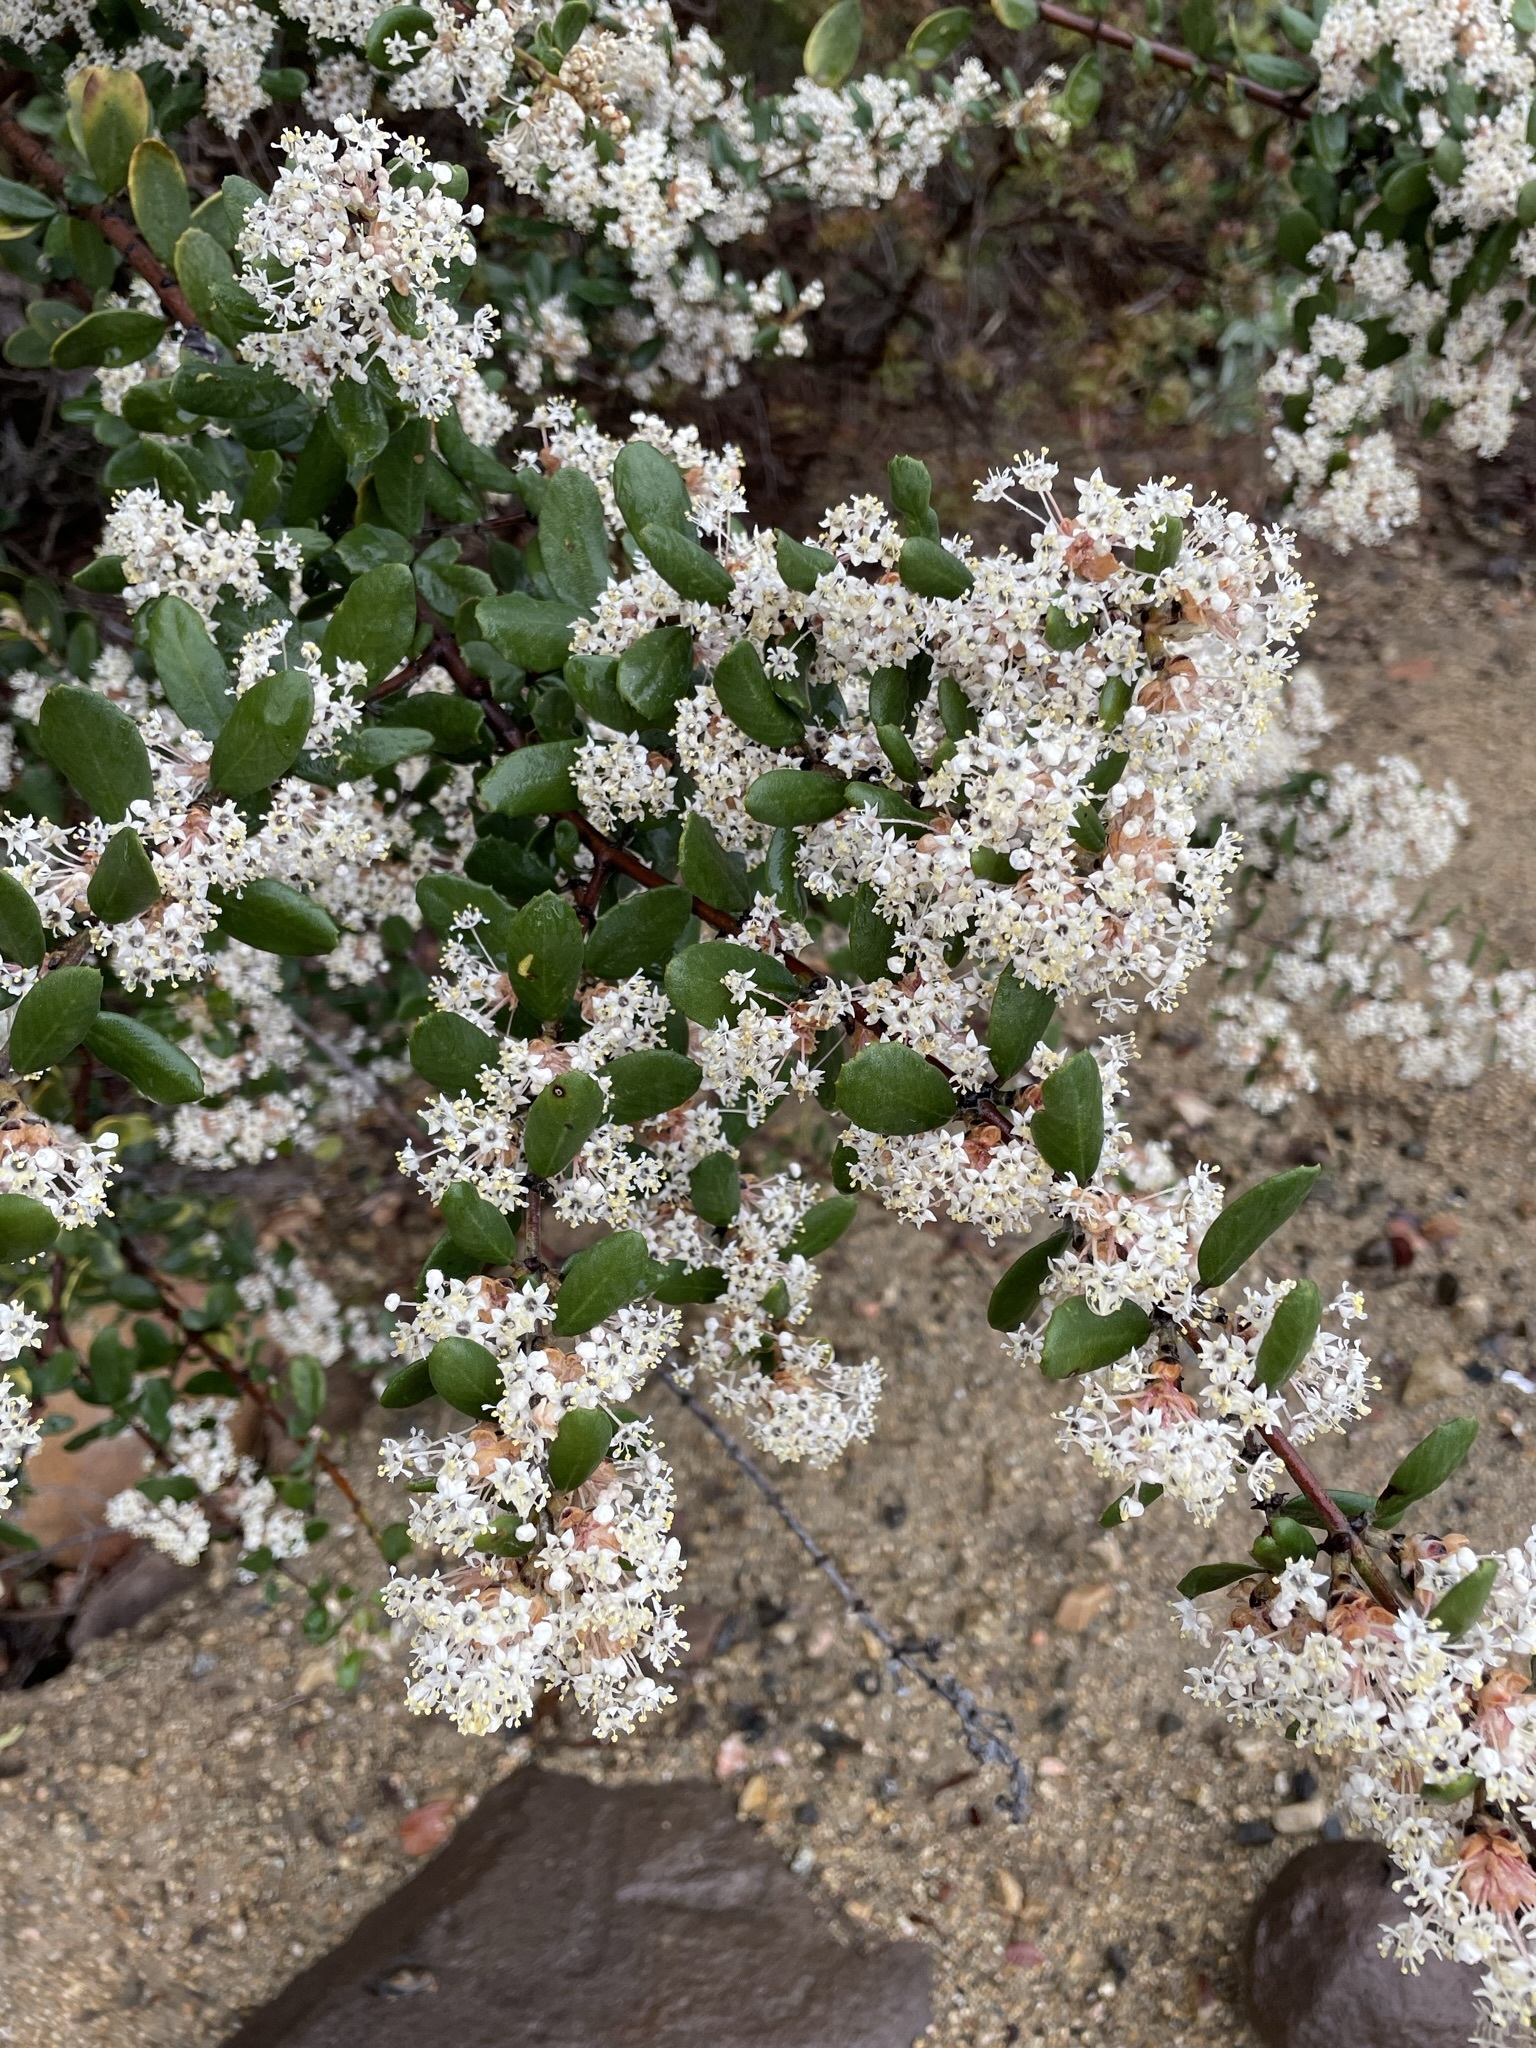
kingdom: Plantae
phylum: Tracheophyta
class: Magnoliopsida
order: Rosales
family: Rhamnaceae
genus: Ceanothus
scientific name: Ceanothus crassifolius
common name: Hoaryleaf ceanothus
